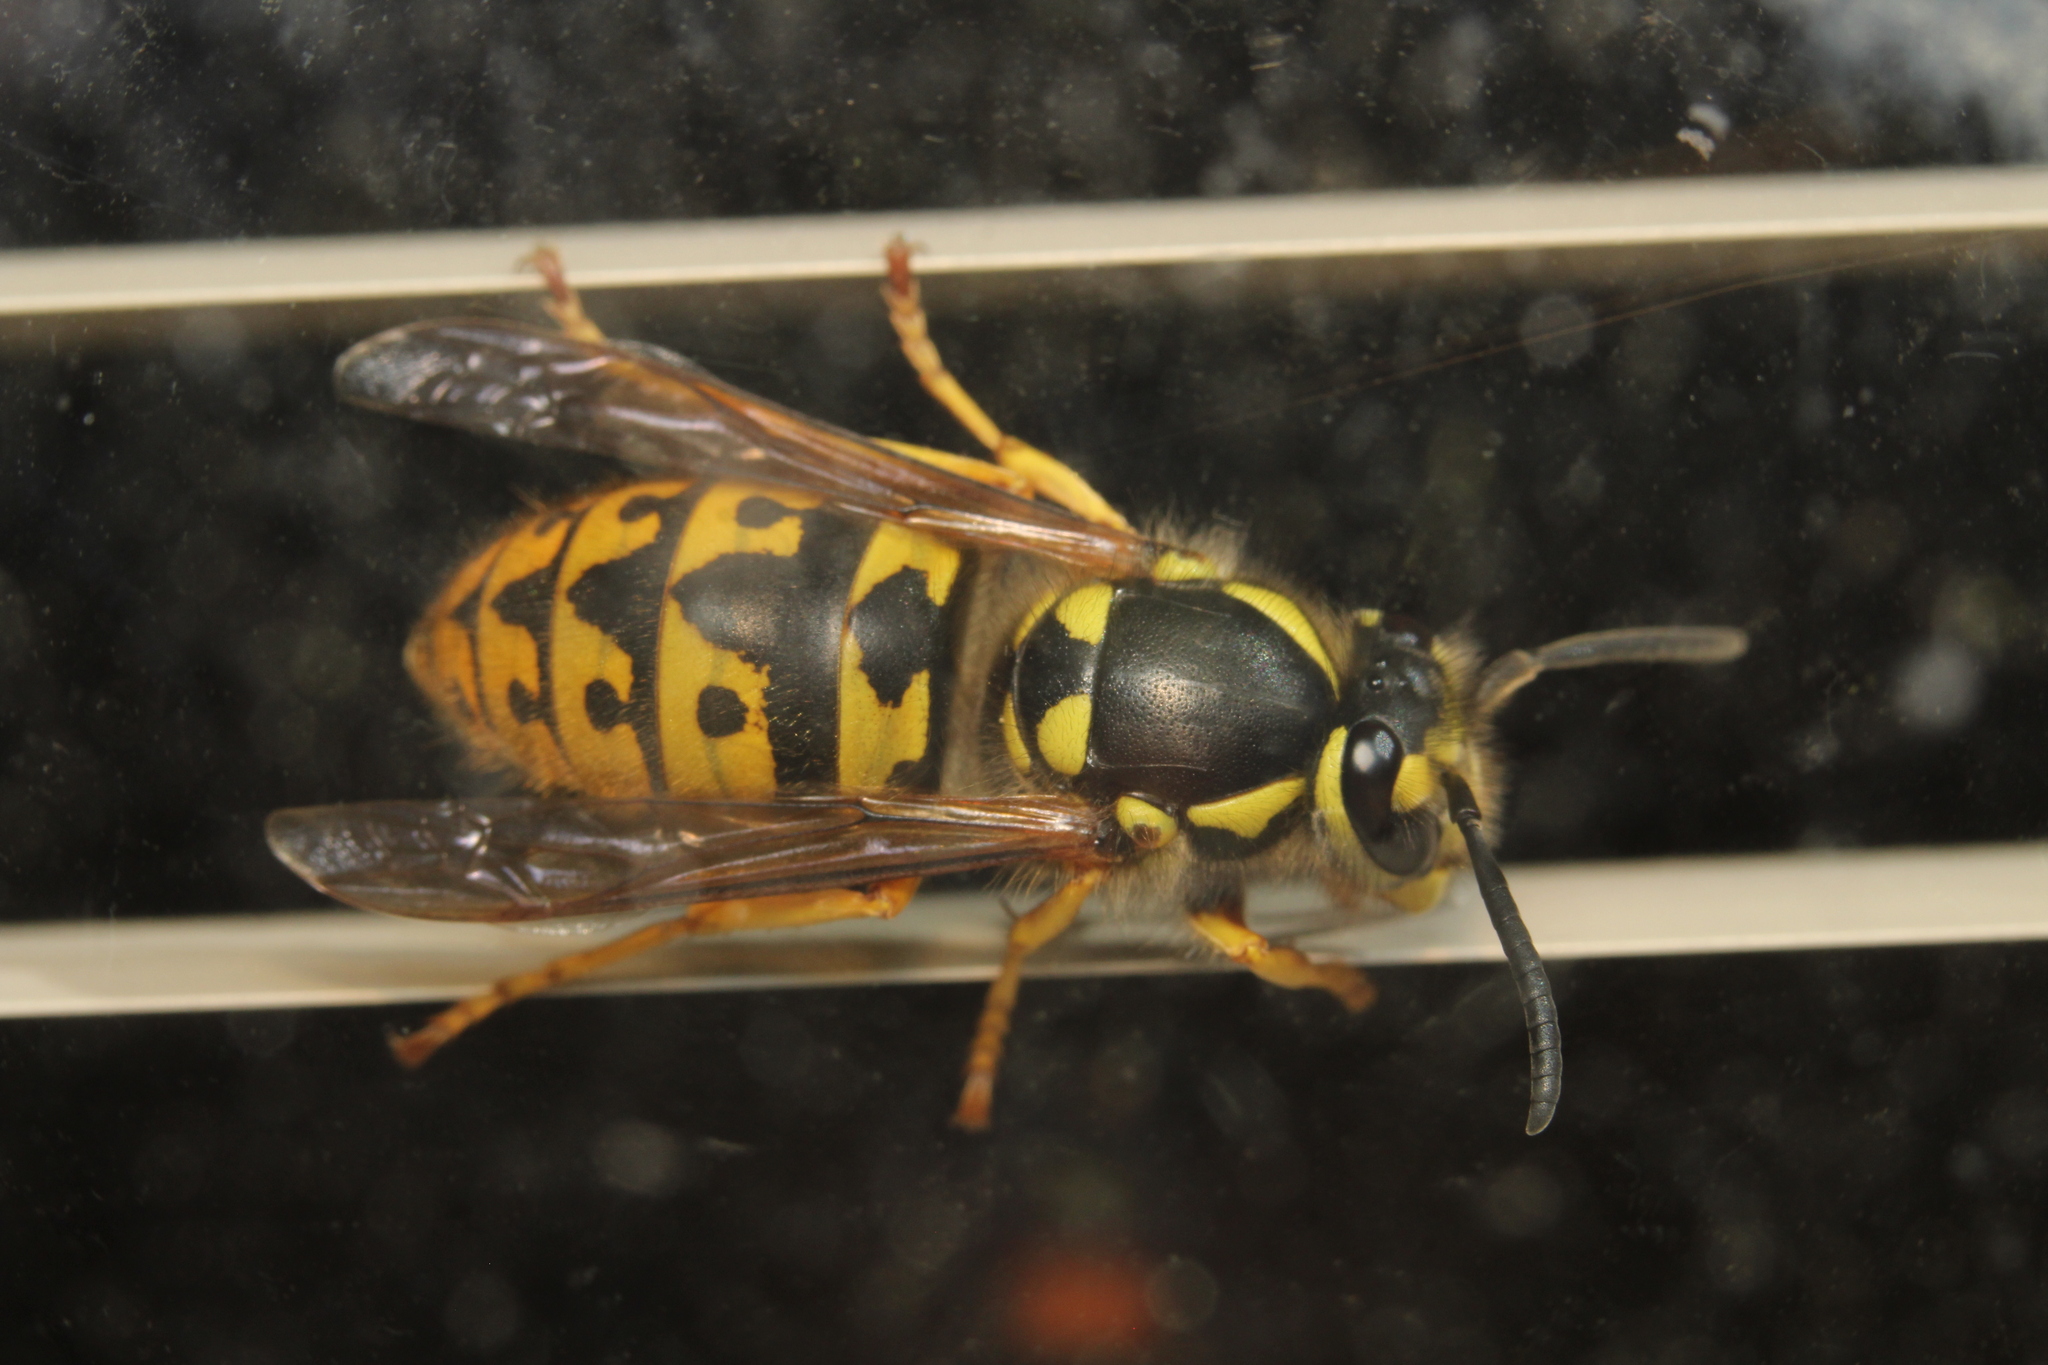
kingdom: Animalia
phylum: Arthropoda
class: Insecta
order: Hymenoptera
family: Vespidae
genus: Vespula
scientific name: Vespula germanica
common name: German wasp
